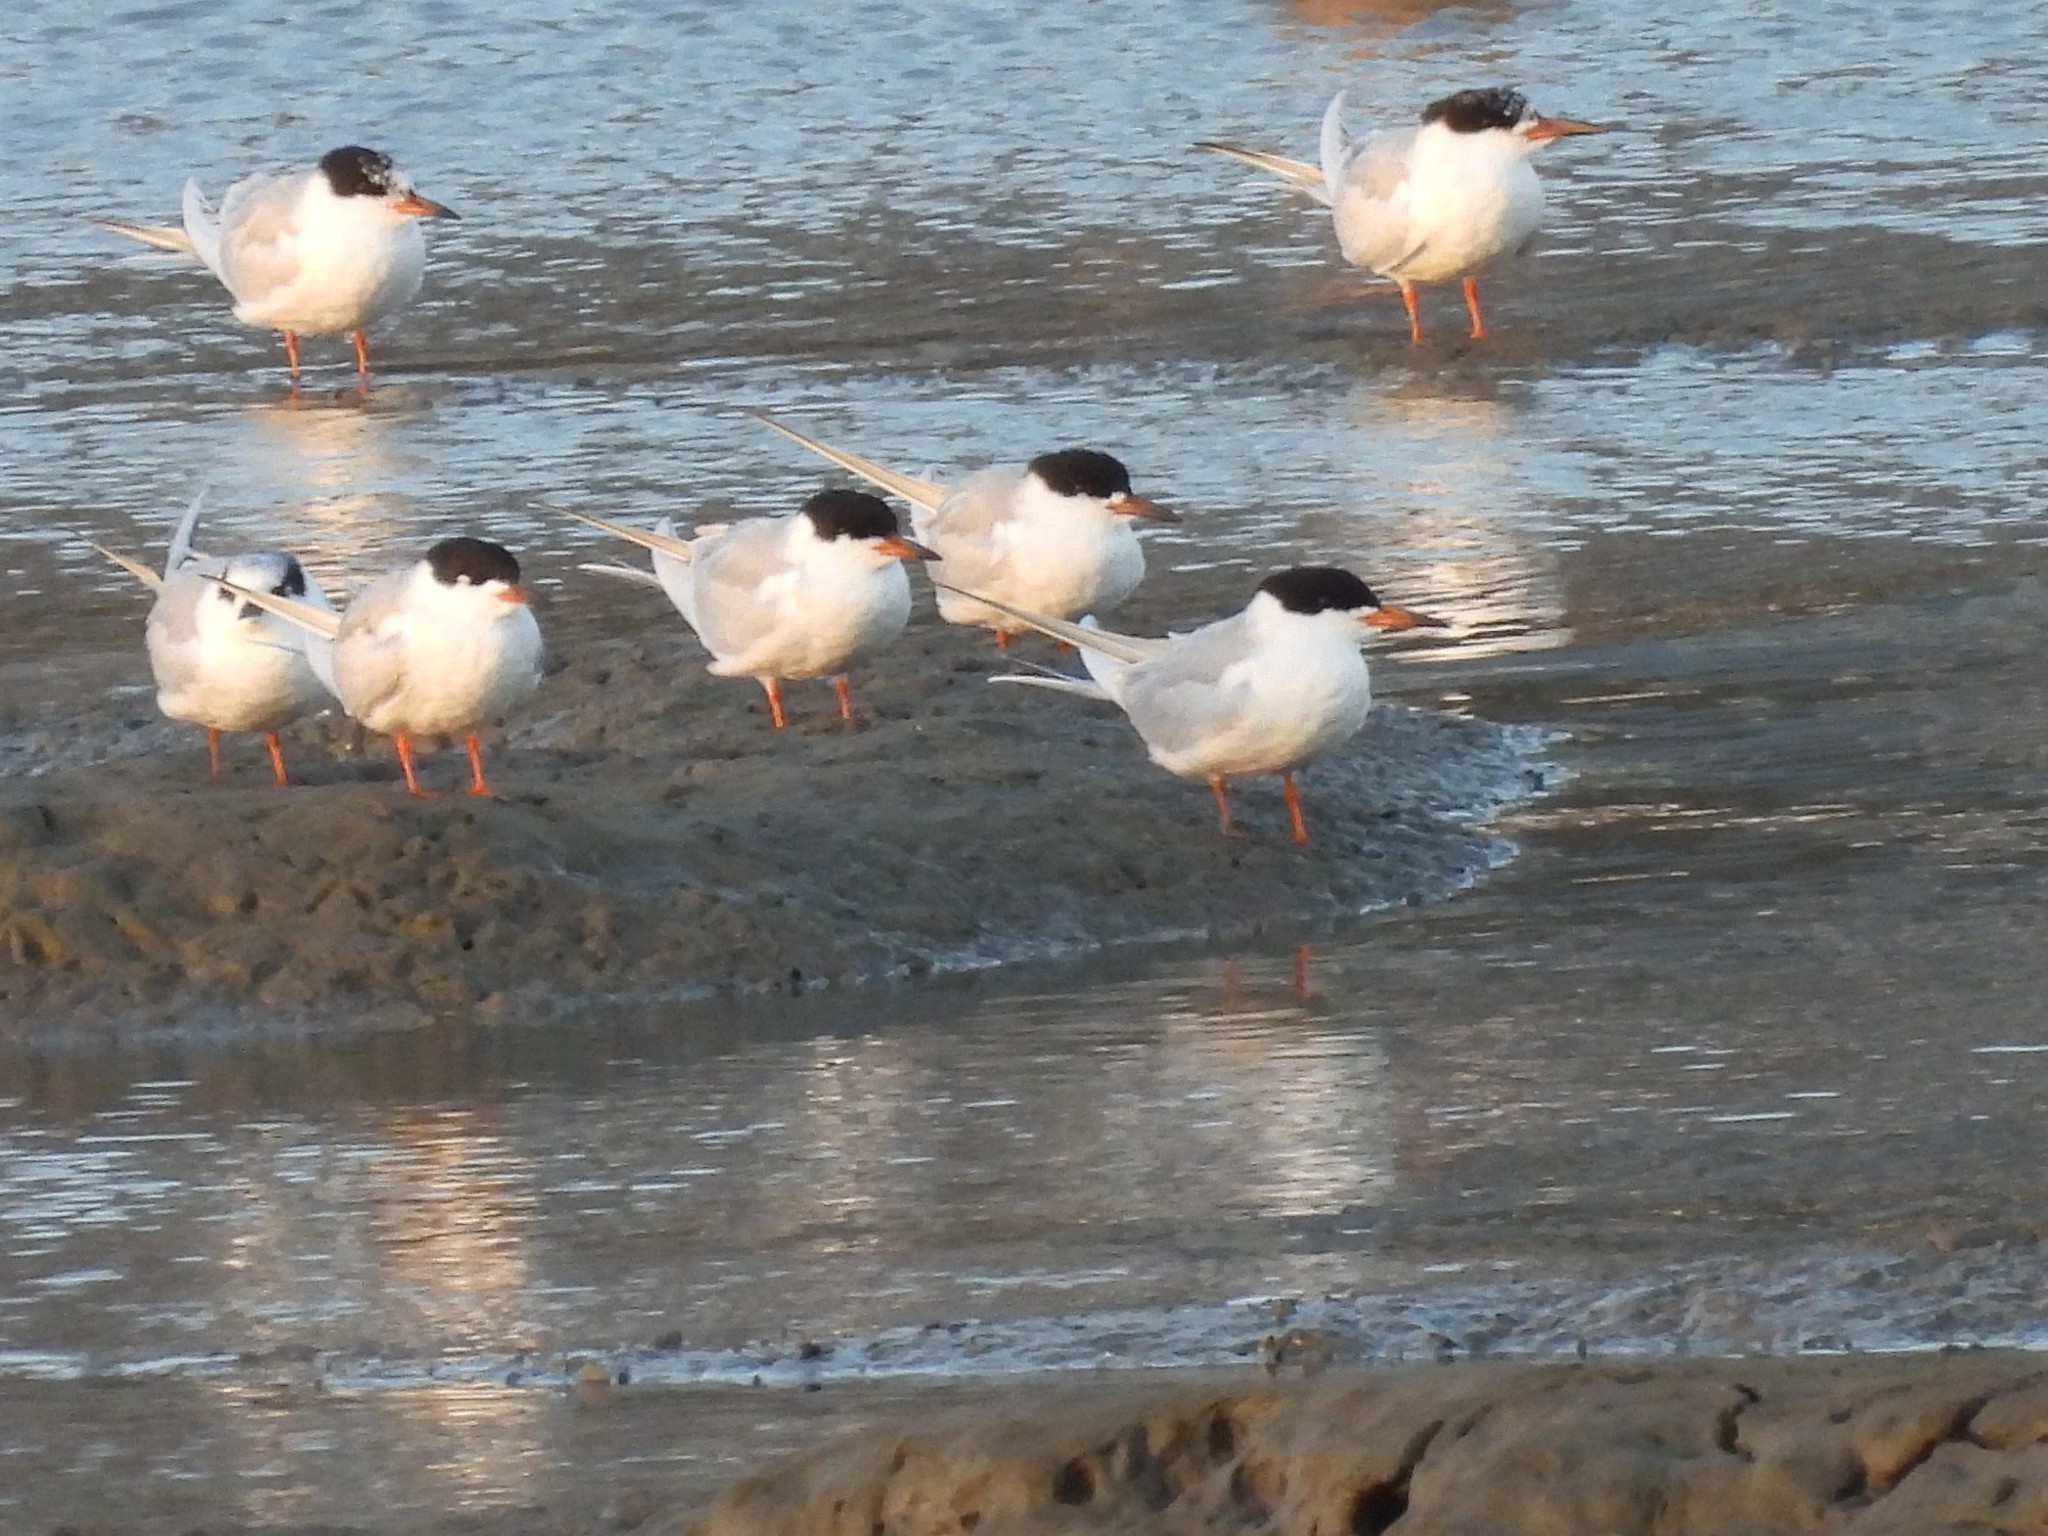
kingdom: Animalia
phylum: Chordata
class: Aves
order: Charadriiformes
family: Laridae
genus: Sterna
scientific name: Sterna forsteri
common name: Forster's tern
